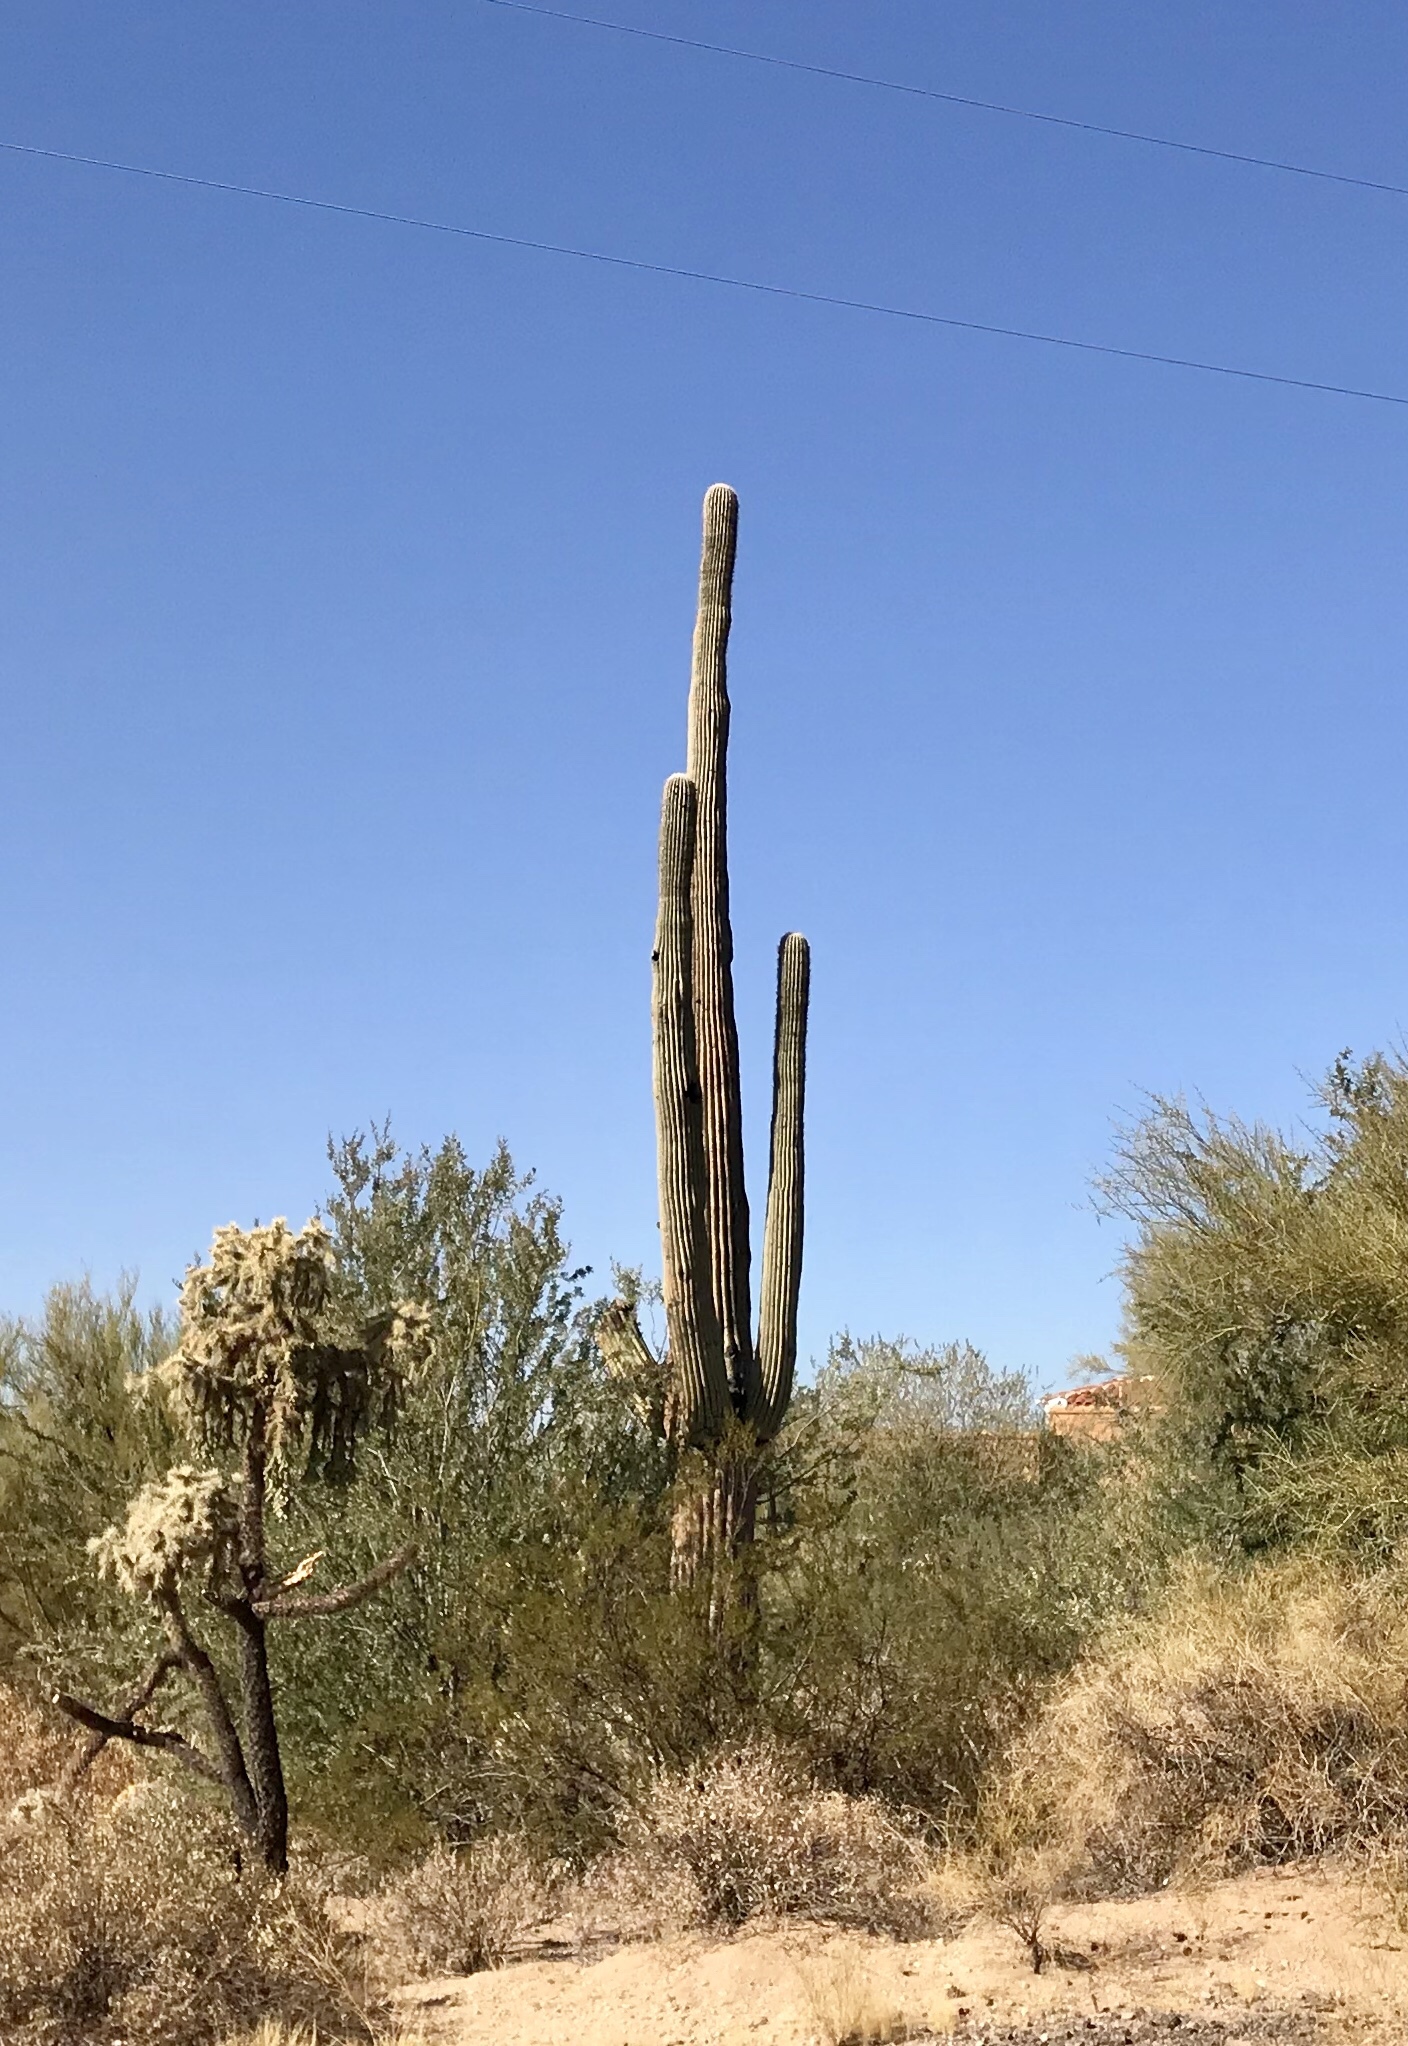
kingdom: Plantae
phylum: Tracheophyta
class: Magnoliopsida
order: Caryophyllales
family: Cactaceae
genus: Carnegiea
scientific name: Carnegiea gigantea
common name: Saguaro
